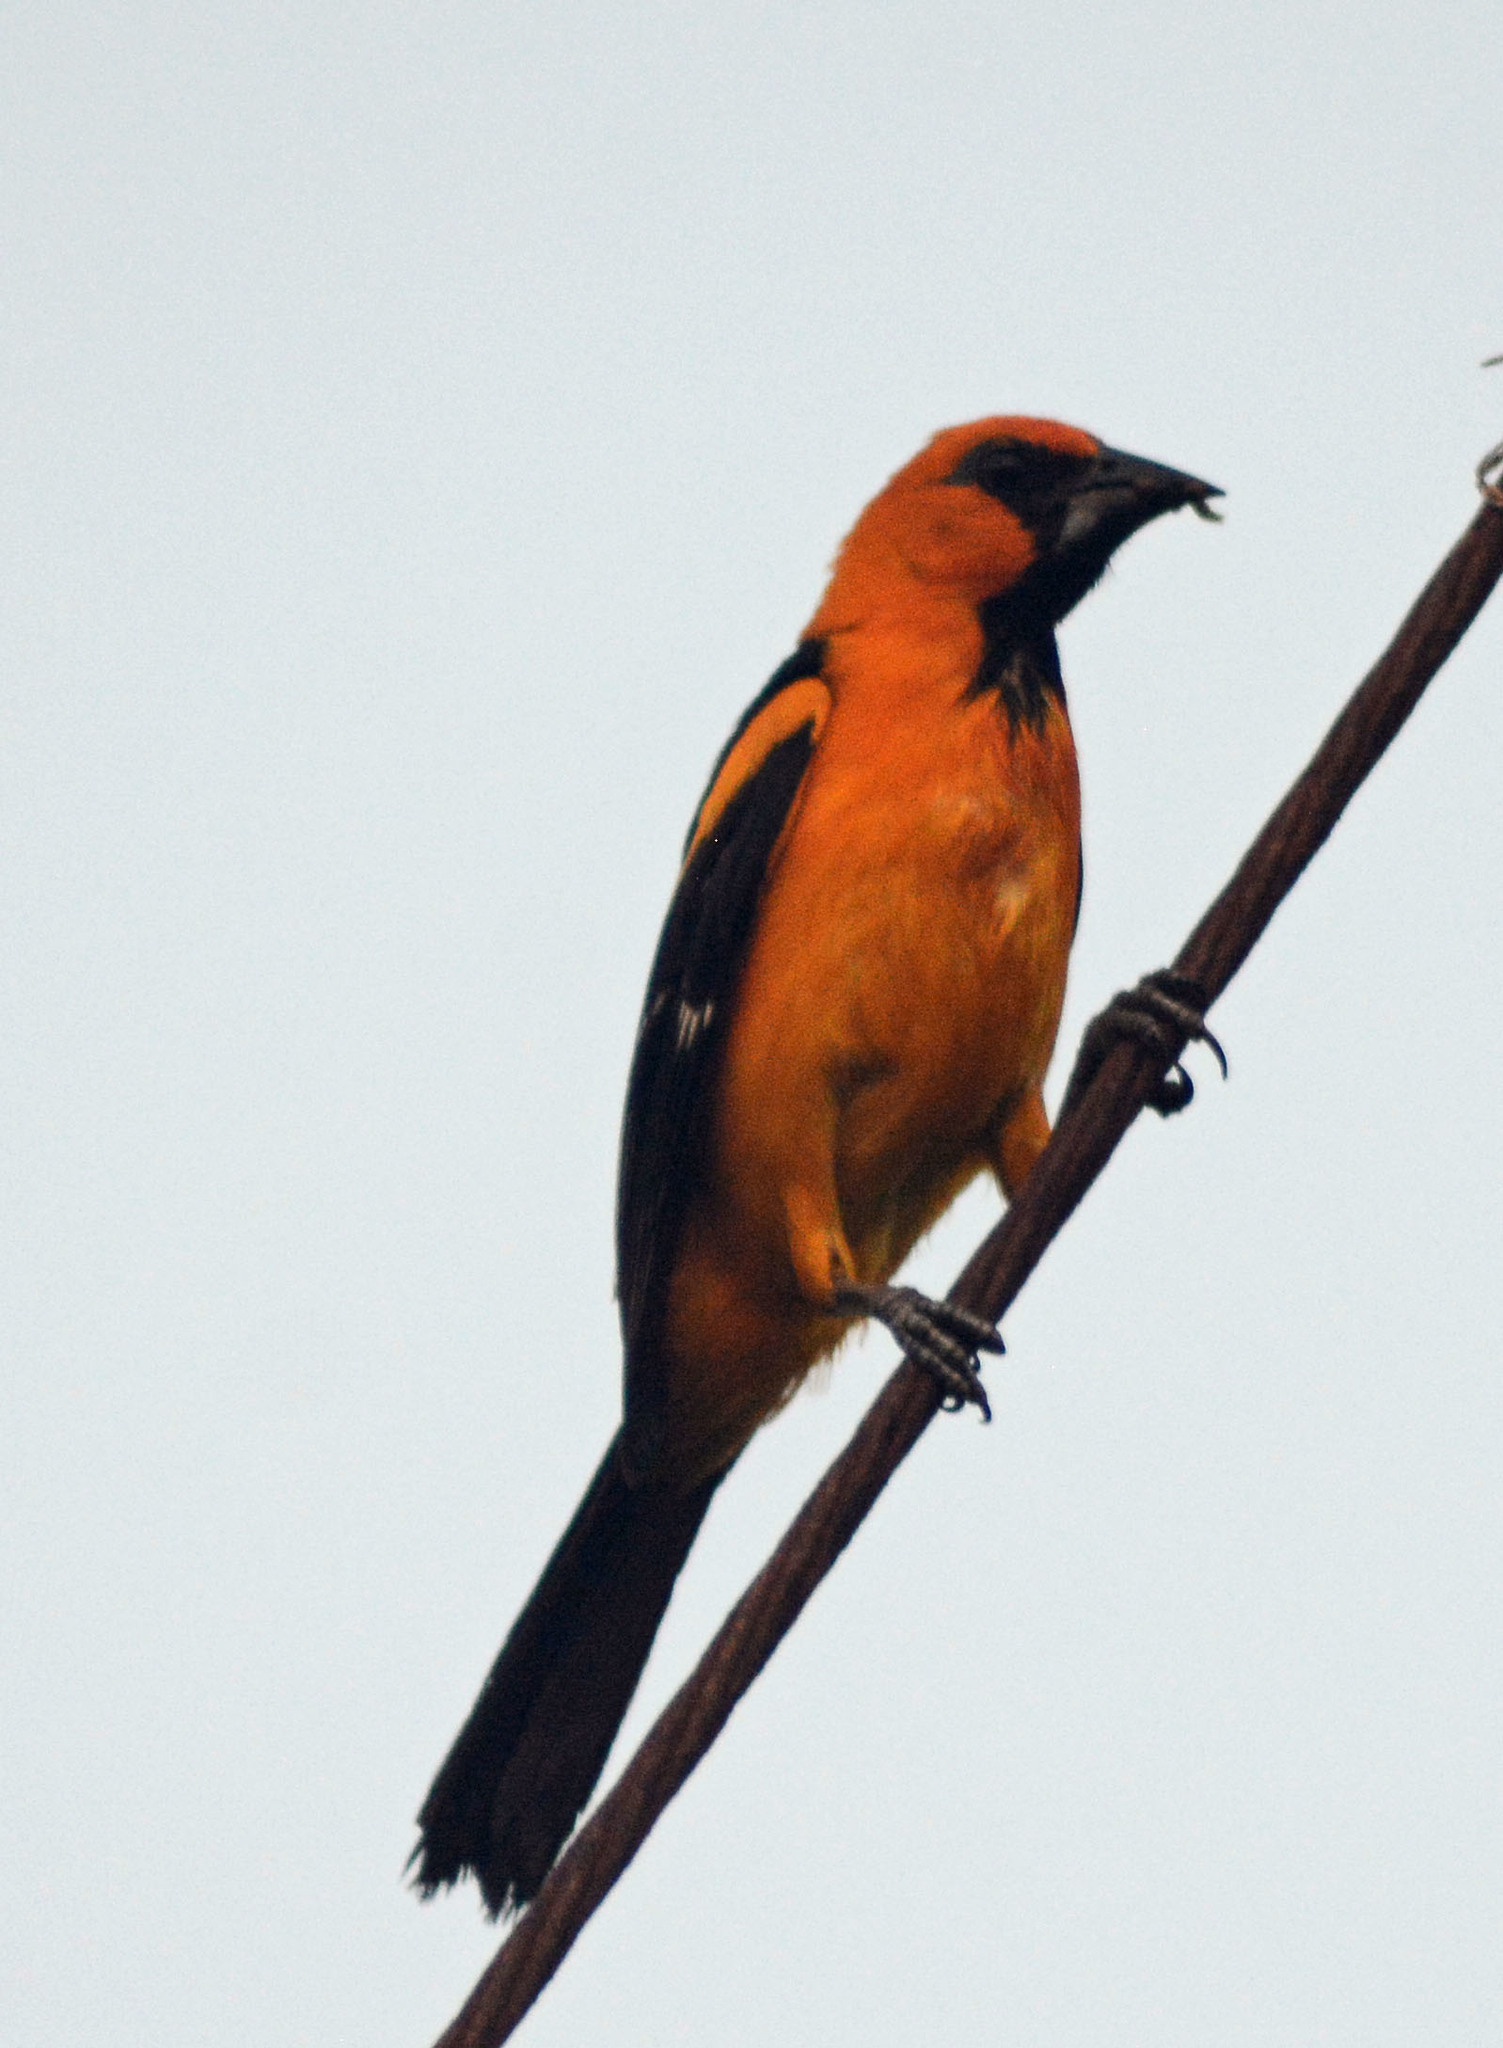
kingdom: Animalia
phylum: Chordata
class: Aves
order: Passeriformes
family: Icteridae
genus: Icterus
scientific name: Icterus gularis
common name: Altamira oriole
